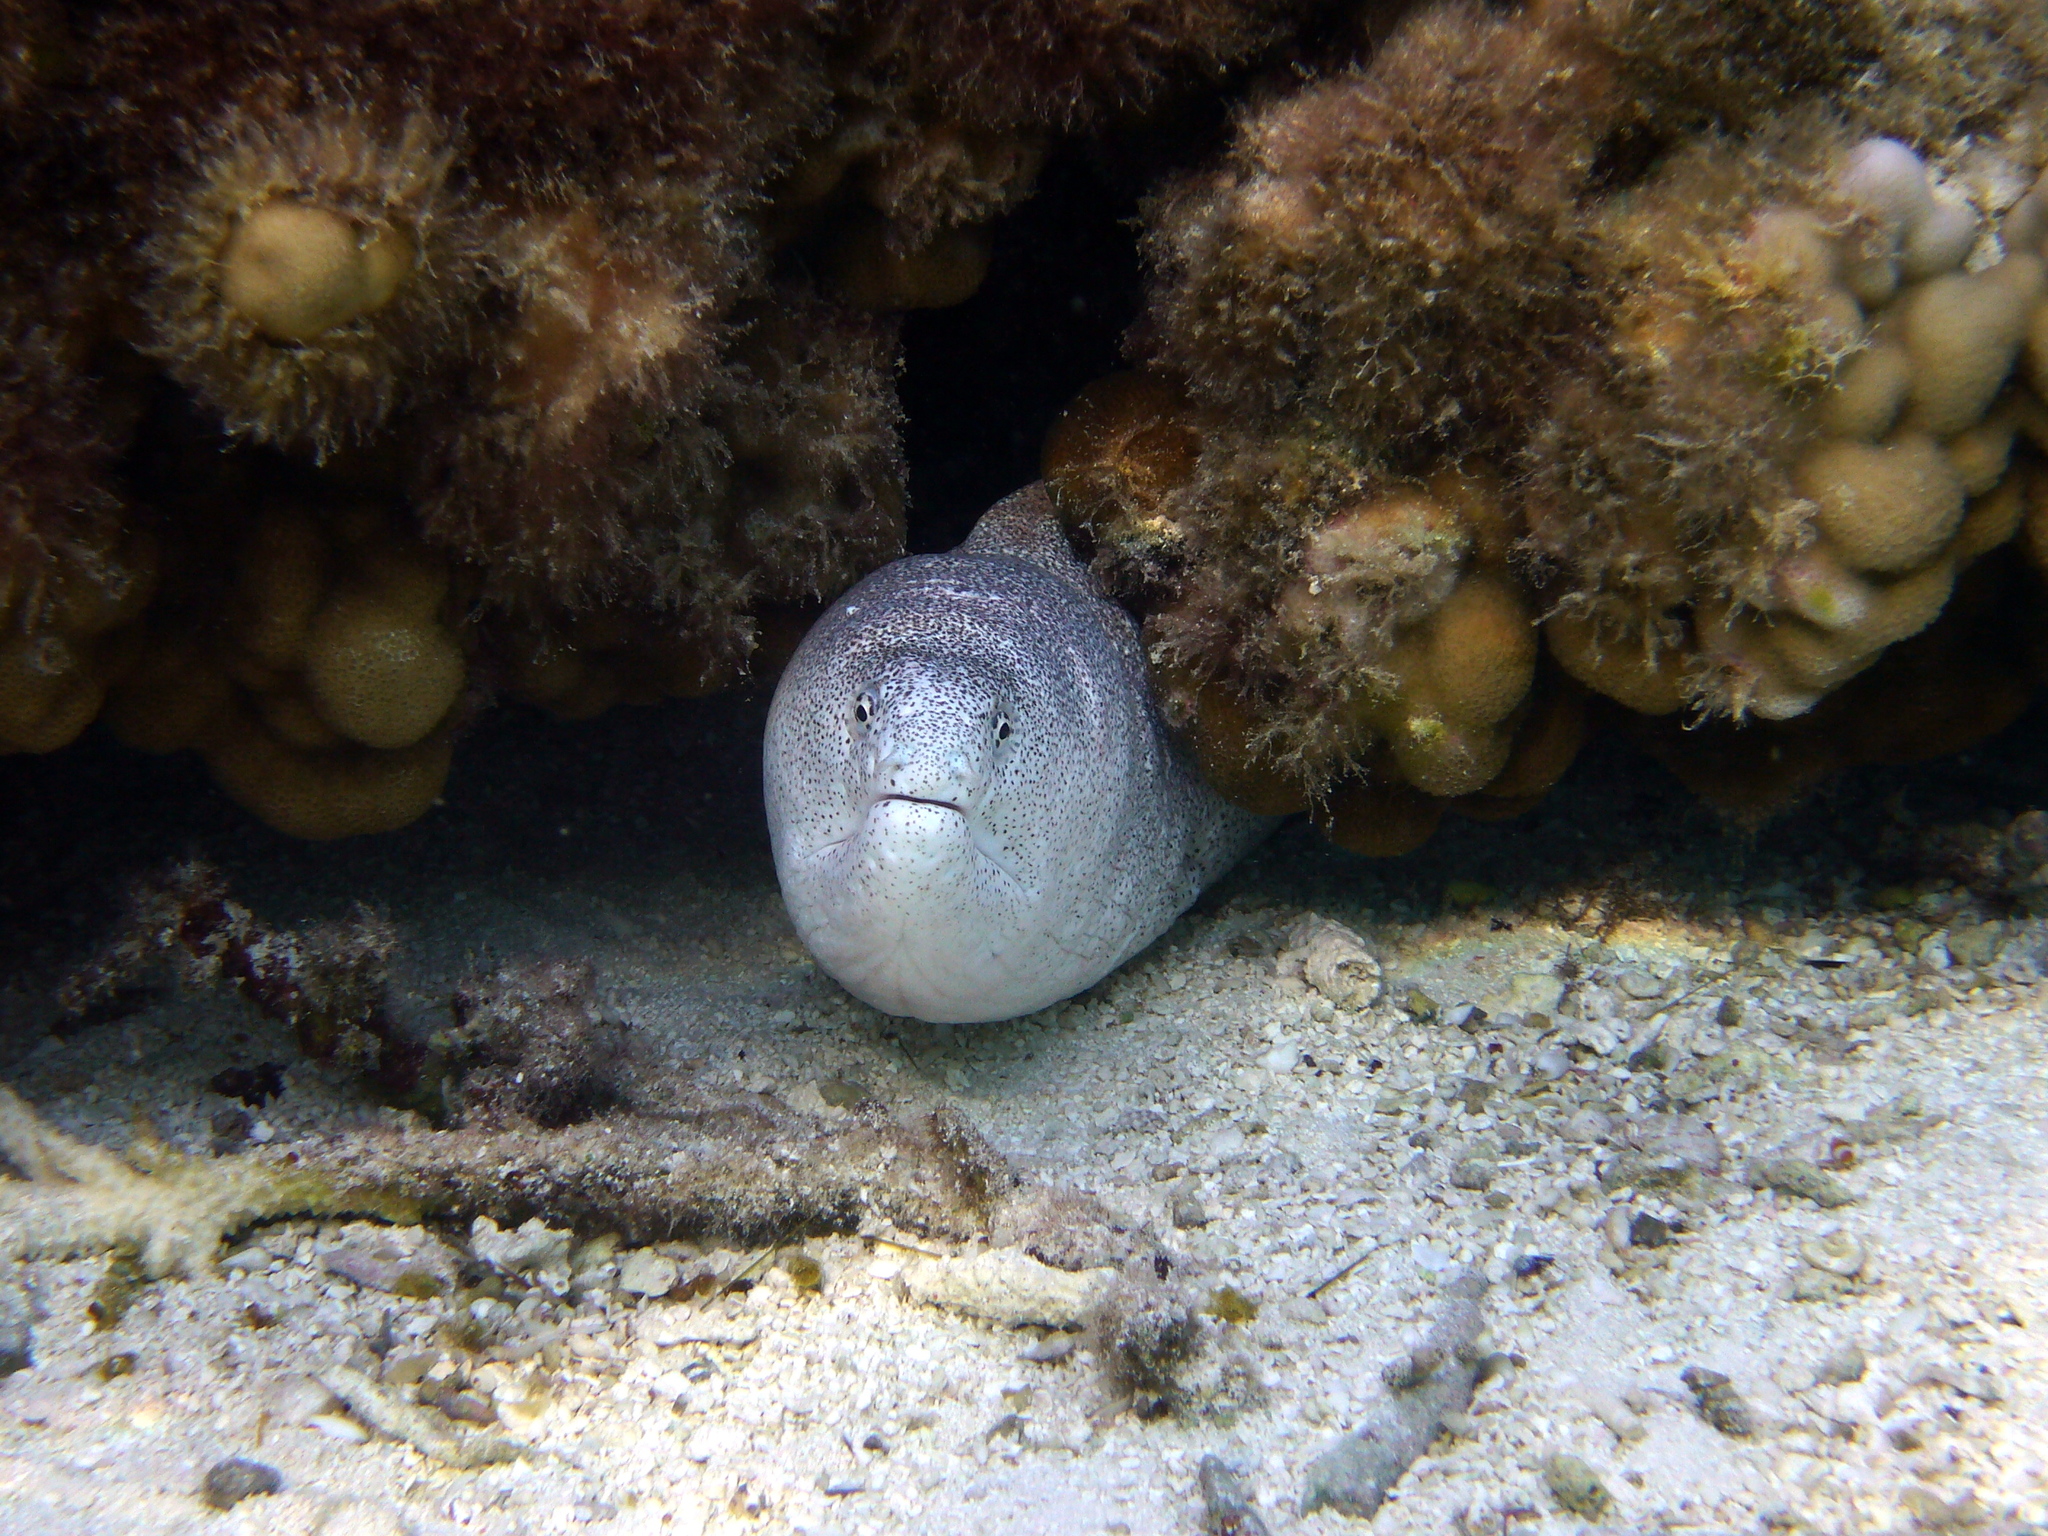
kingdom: Animalia
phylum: Chordata
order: Anguilliformes
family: Muraenidae
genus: Gymnothorax
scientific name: Gymnothorax pictus
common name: Peppered moray
